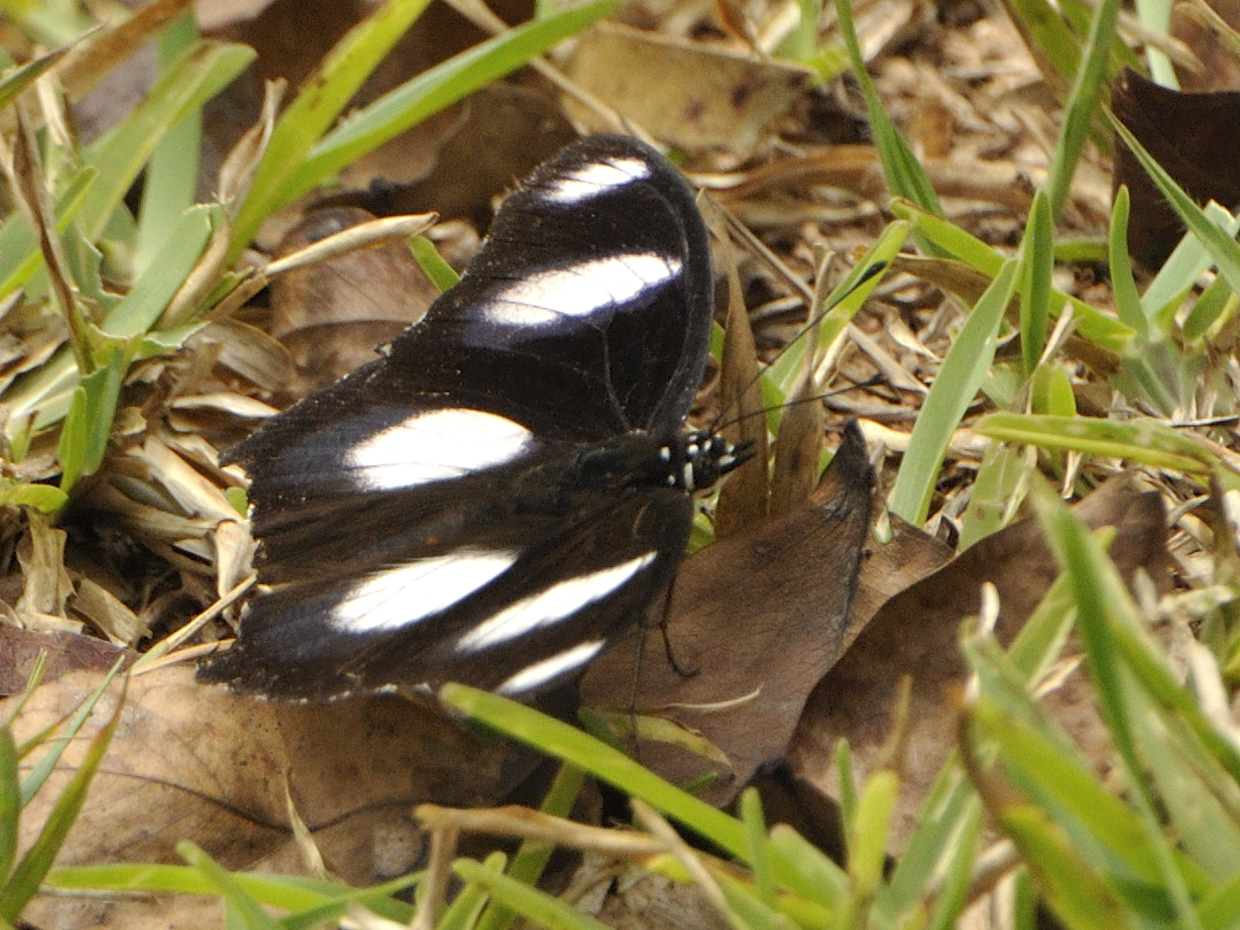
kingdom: Animalia
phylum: Arthropoda
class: Insecta
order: Lepidoptera
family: Nymphalidae
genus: Hypolimnas
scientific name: Hypolimnas misippus
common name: False plain tiger
